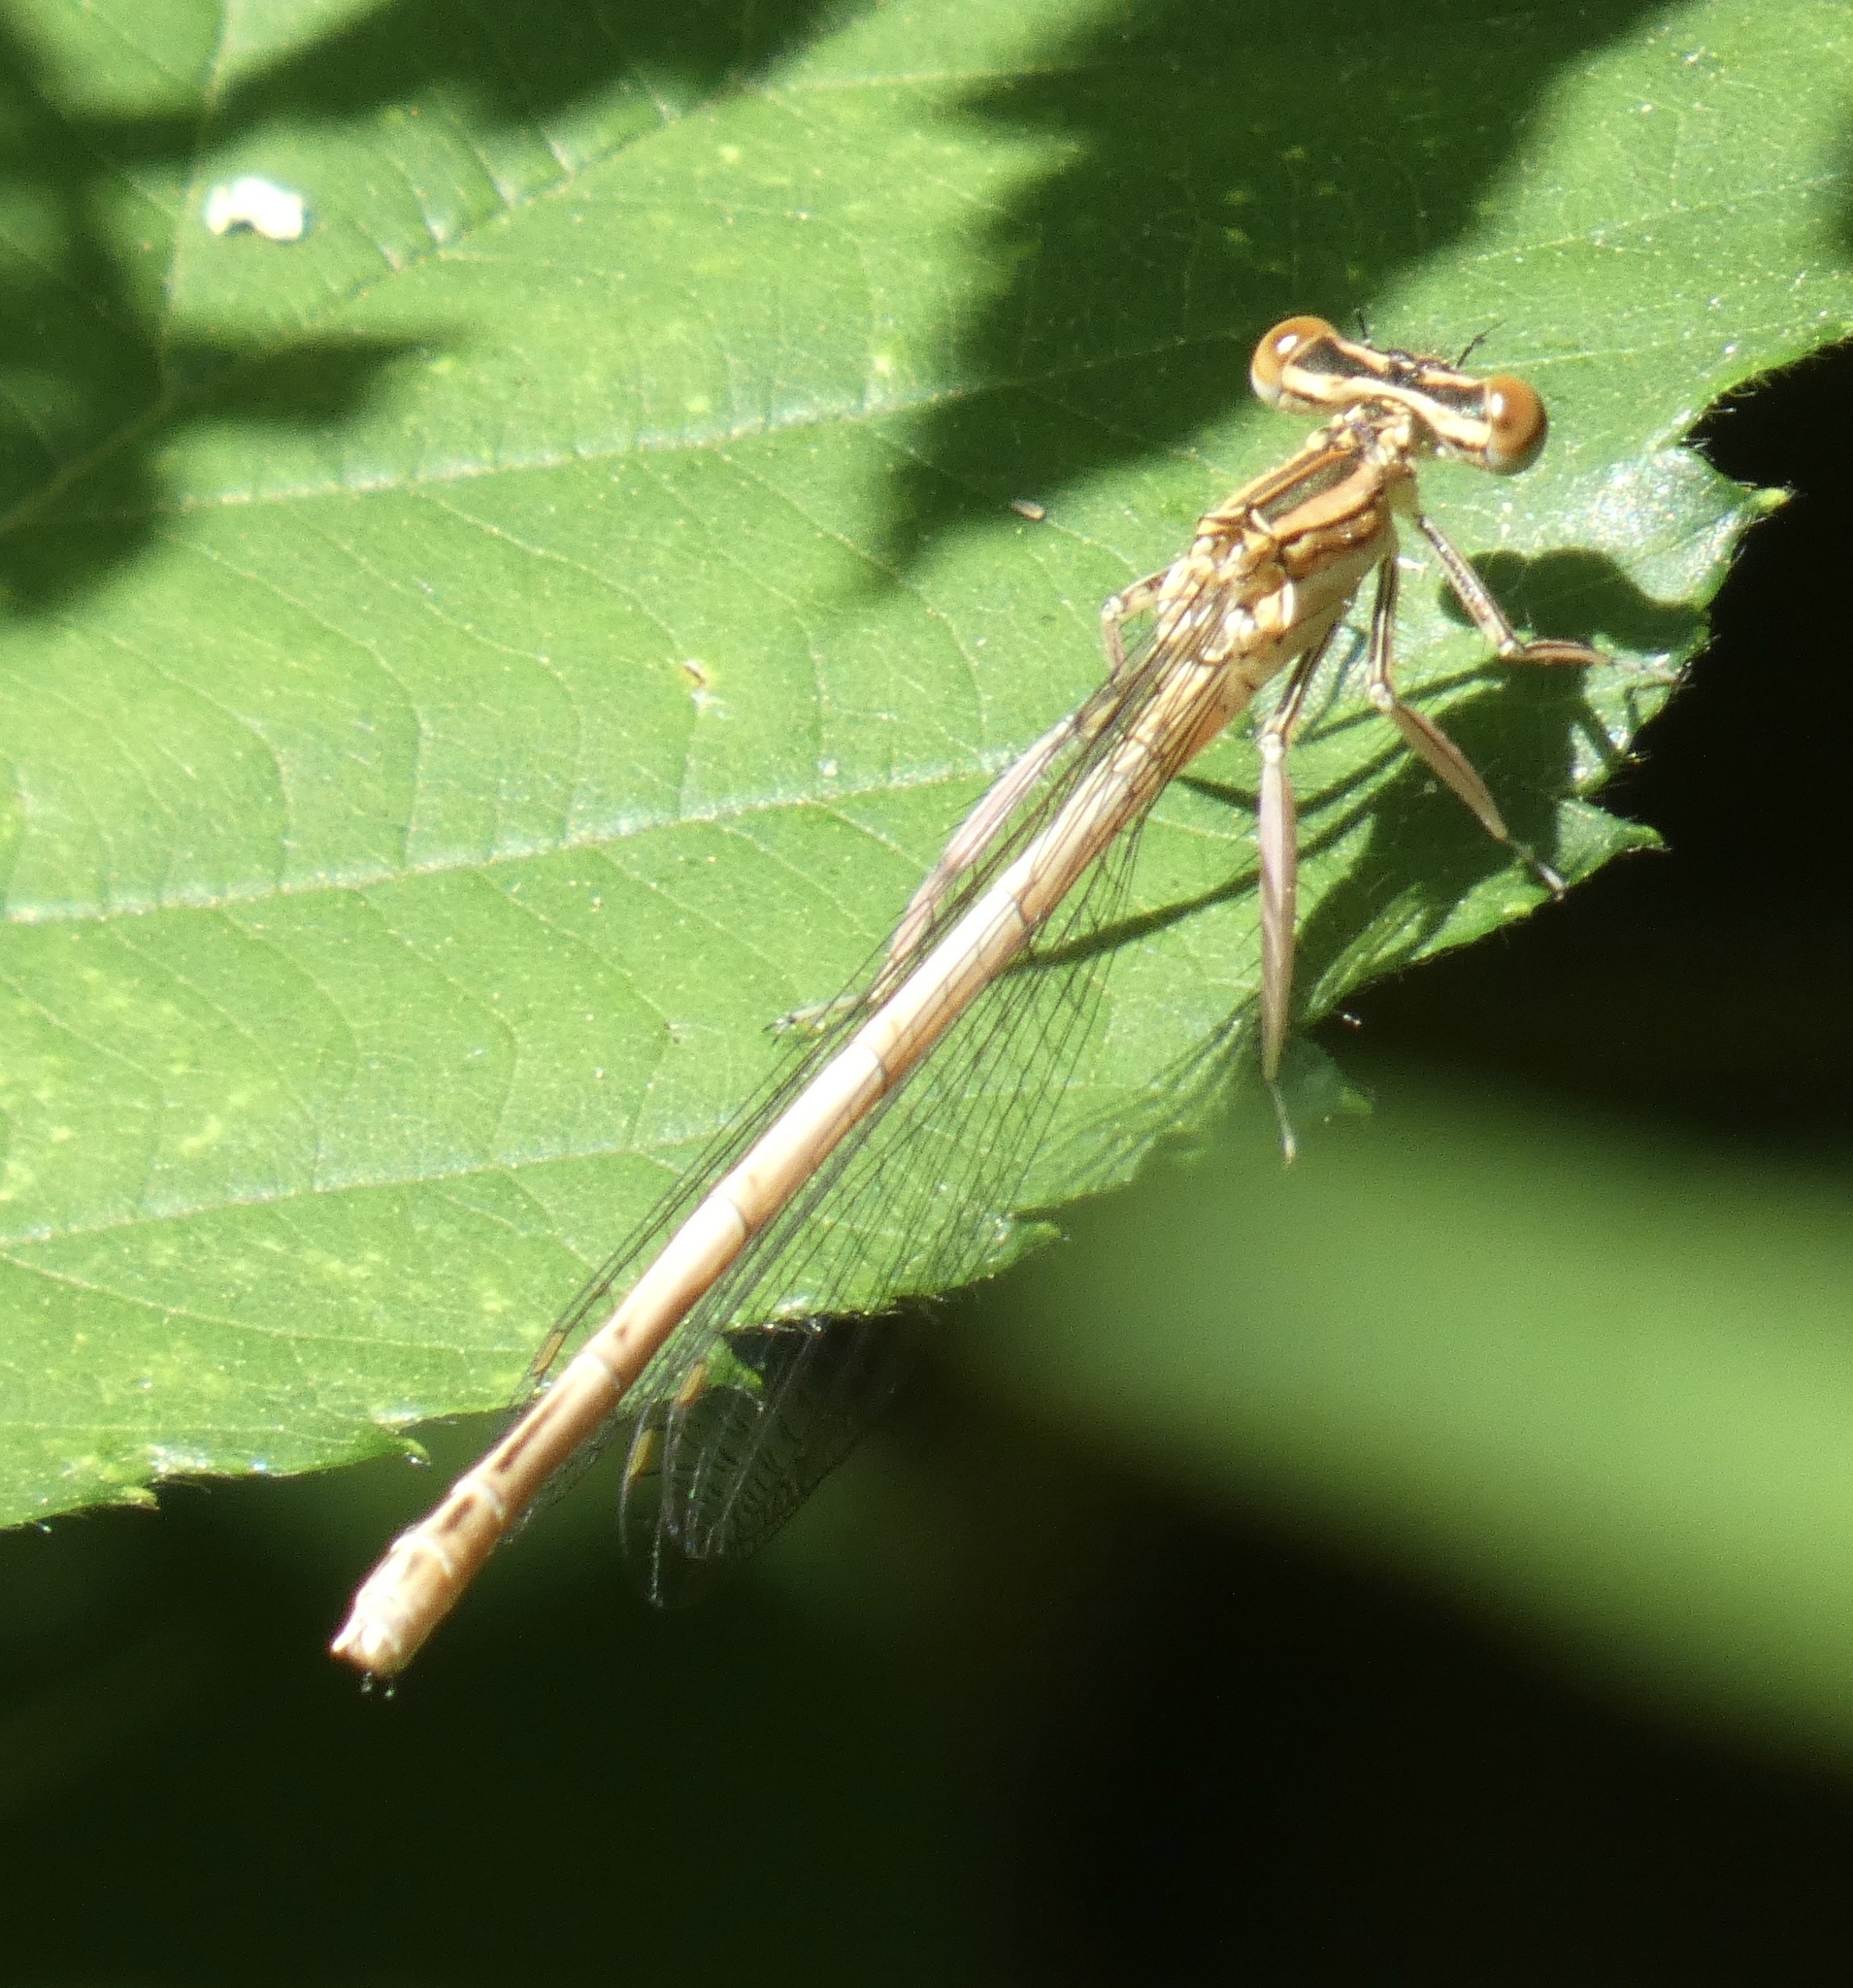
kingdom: Animalia
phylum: Arthropoda
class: Insecta
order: Odonata
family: Platycnemididae
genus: Platycnemis
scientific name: Platycnemis pennipes
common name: White-legged damselfly
